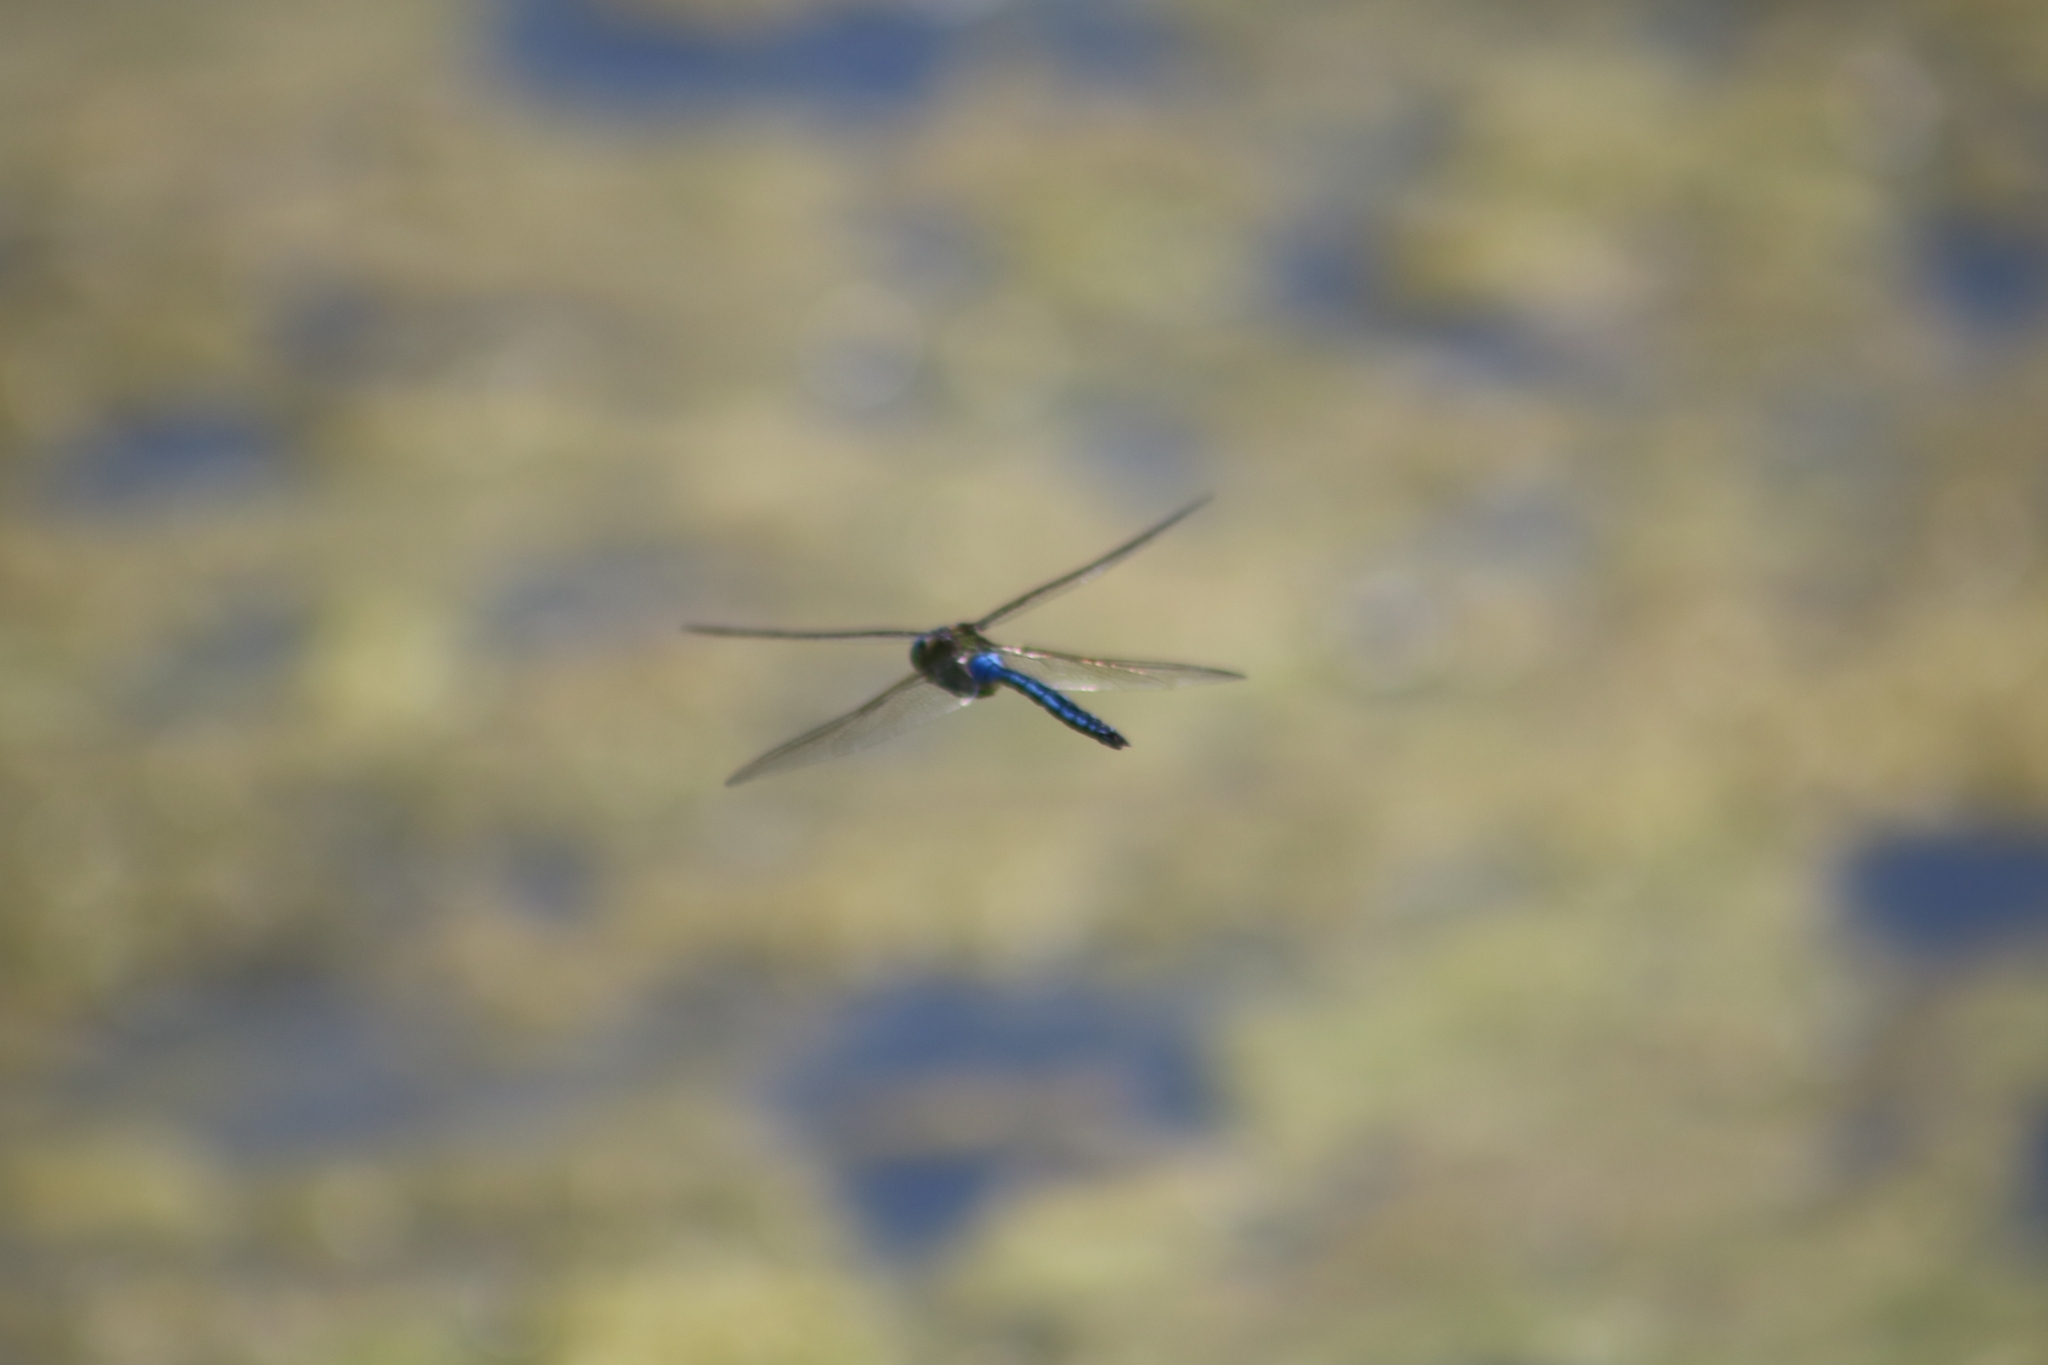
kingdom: Animalia
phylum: Arthropoda
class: Insecta
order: Odonata
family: Aeshnidae
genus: Anax
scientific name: Anax imperator
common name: Emperor dragonfly
